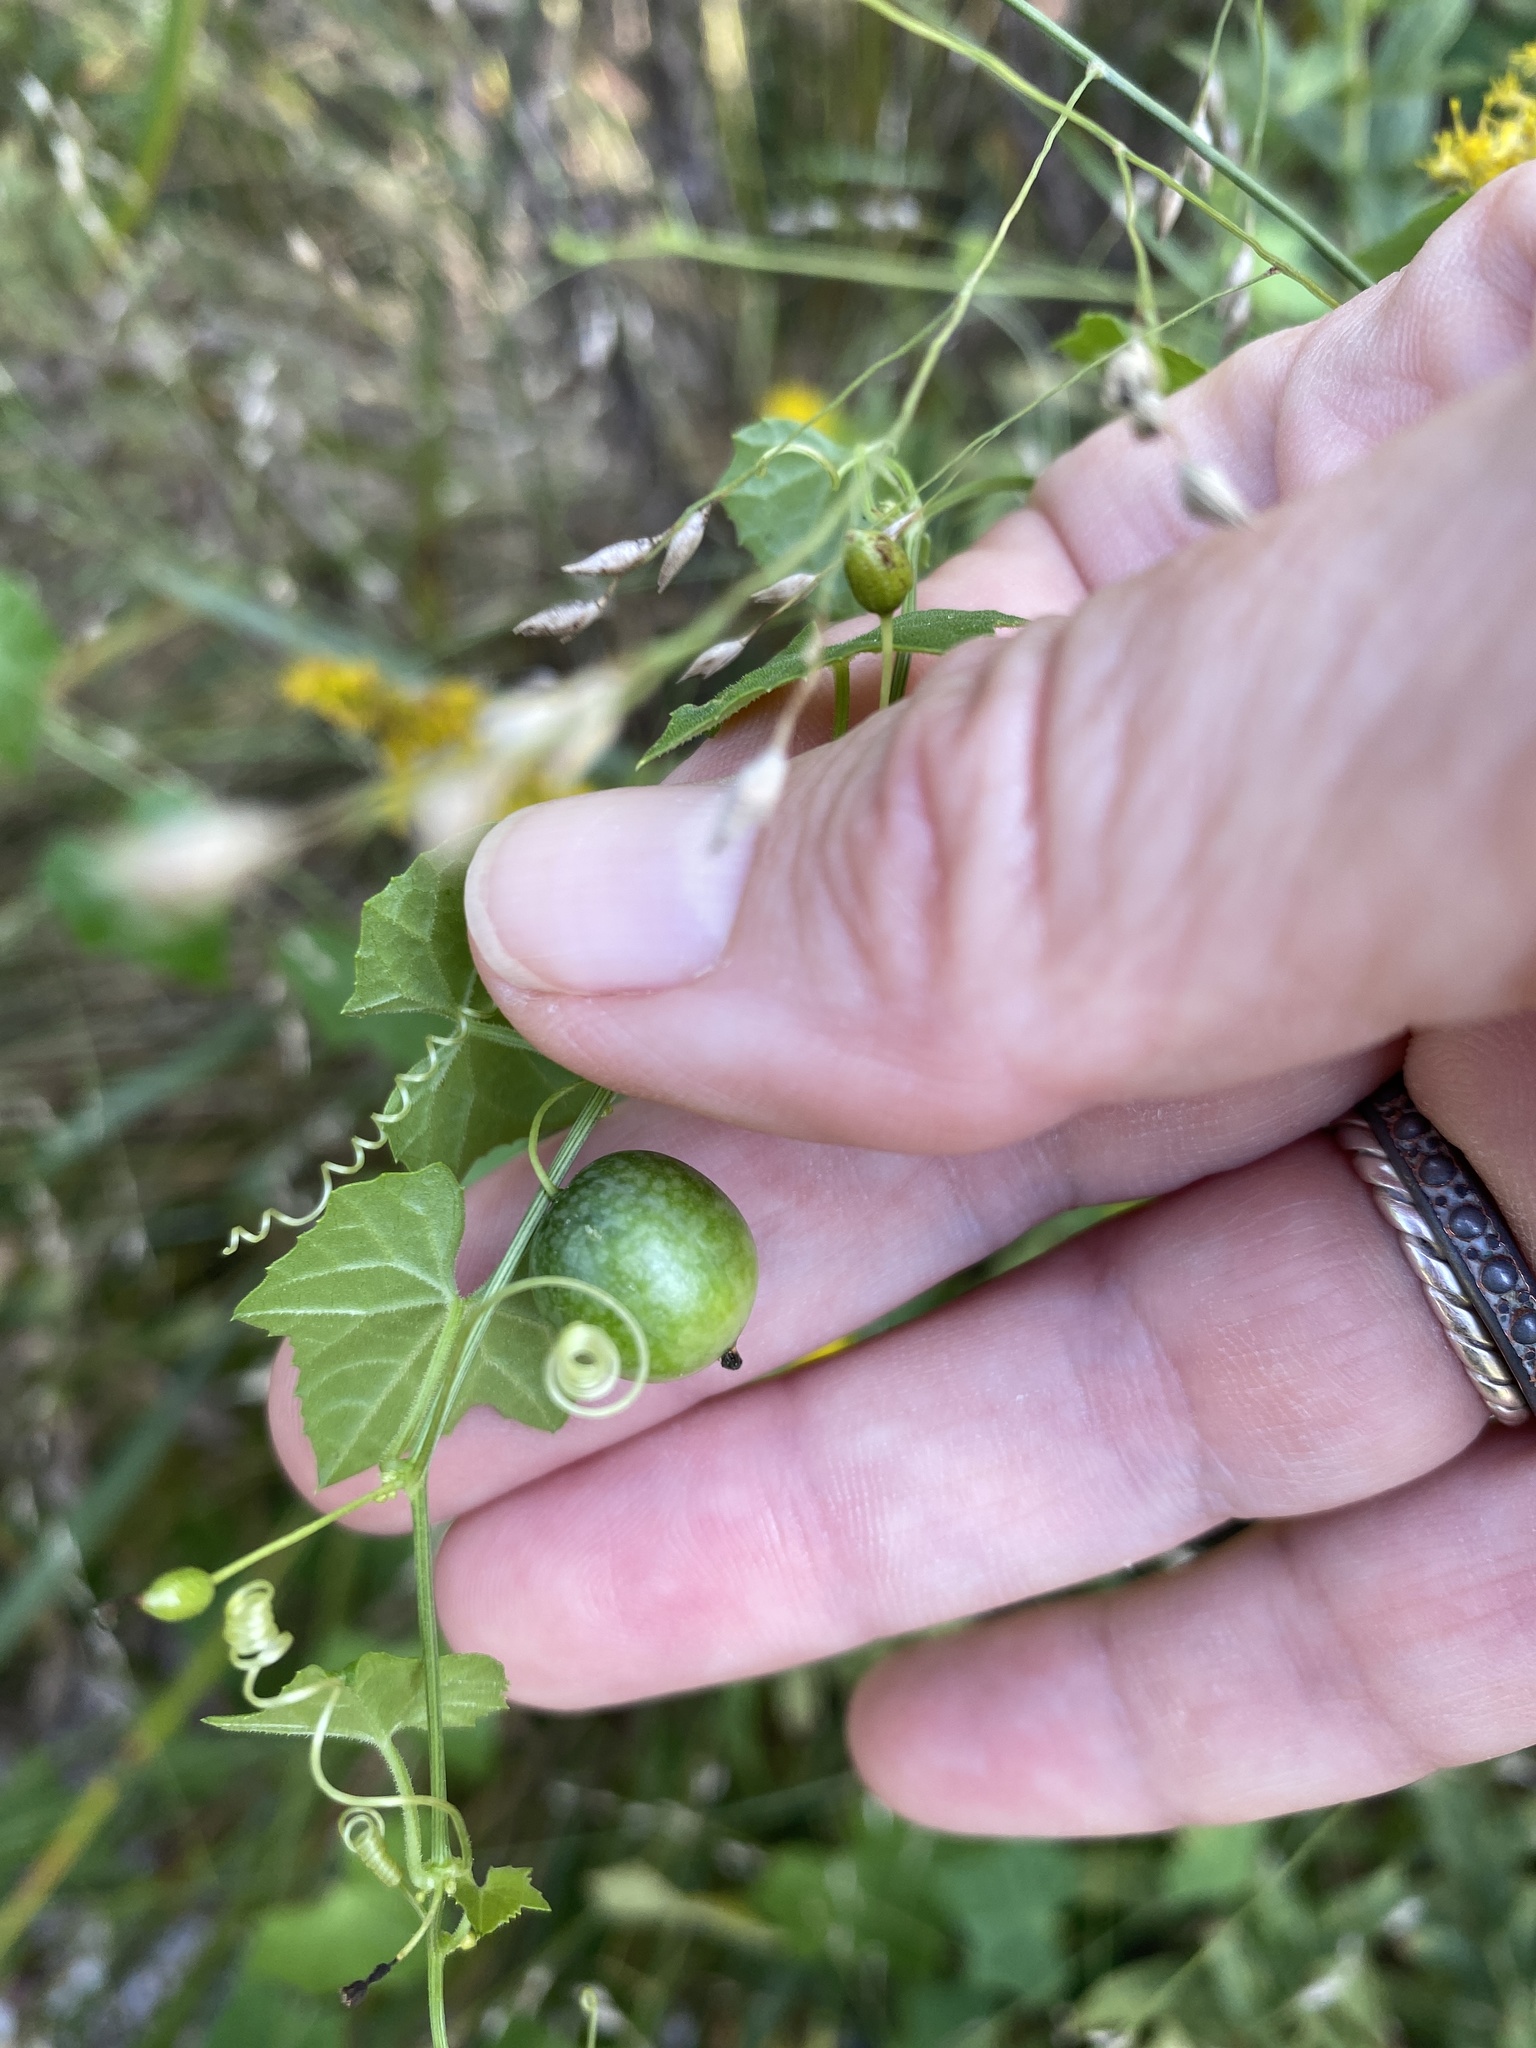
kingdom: Plantae
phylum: Tracheophyta
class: Magnoliopsida
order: Cucurbitales
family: Cucurbitaceae
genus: Melothria
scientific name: Melothria pendula
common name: Creeping-cucumber
